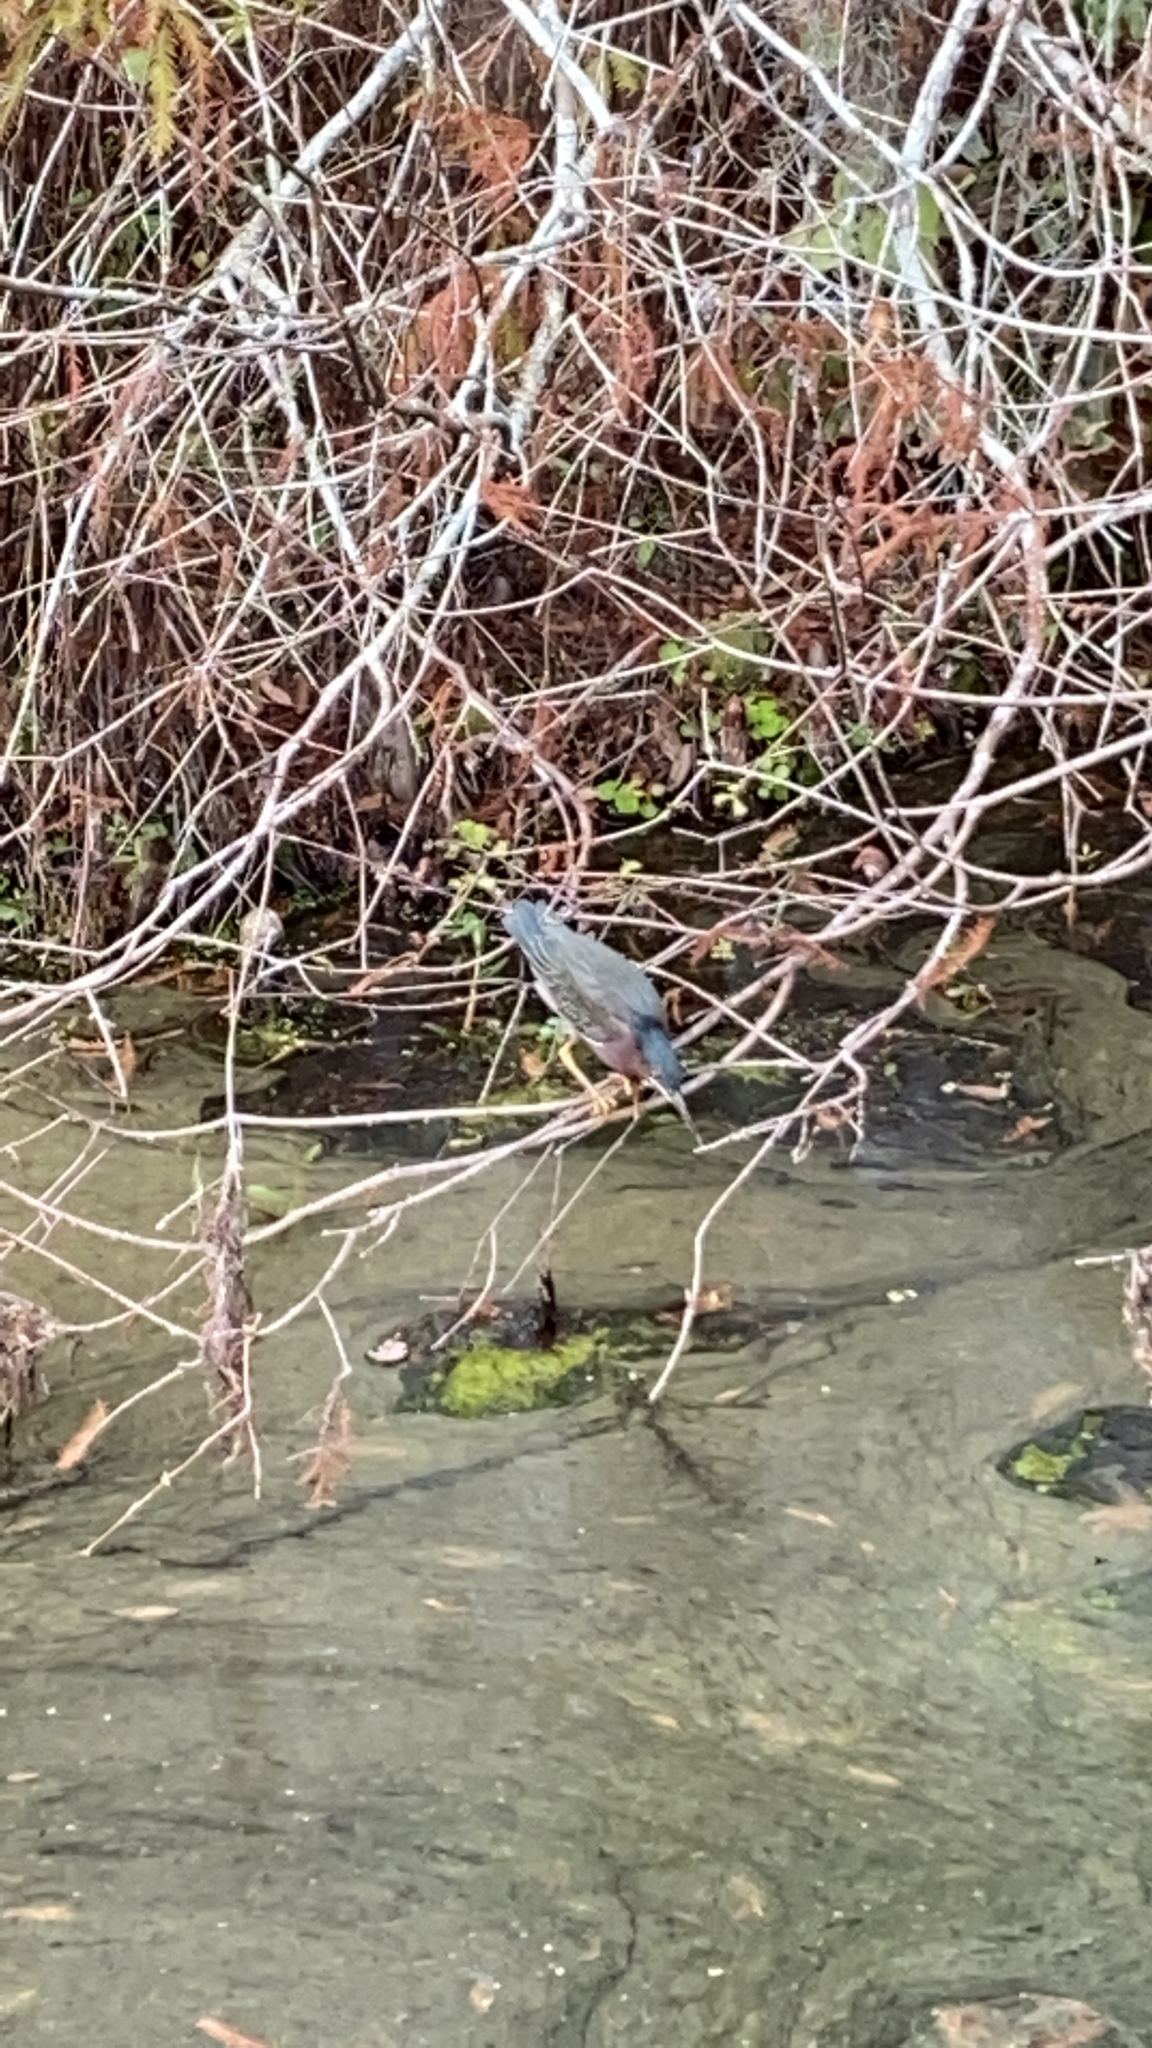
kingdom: Animalia
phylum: Chordata
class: Aves
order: Pelecaniformes
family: Ardeidae
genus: Butorides
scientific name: Butorides virescens
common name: Green heron
